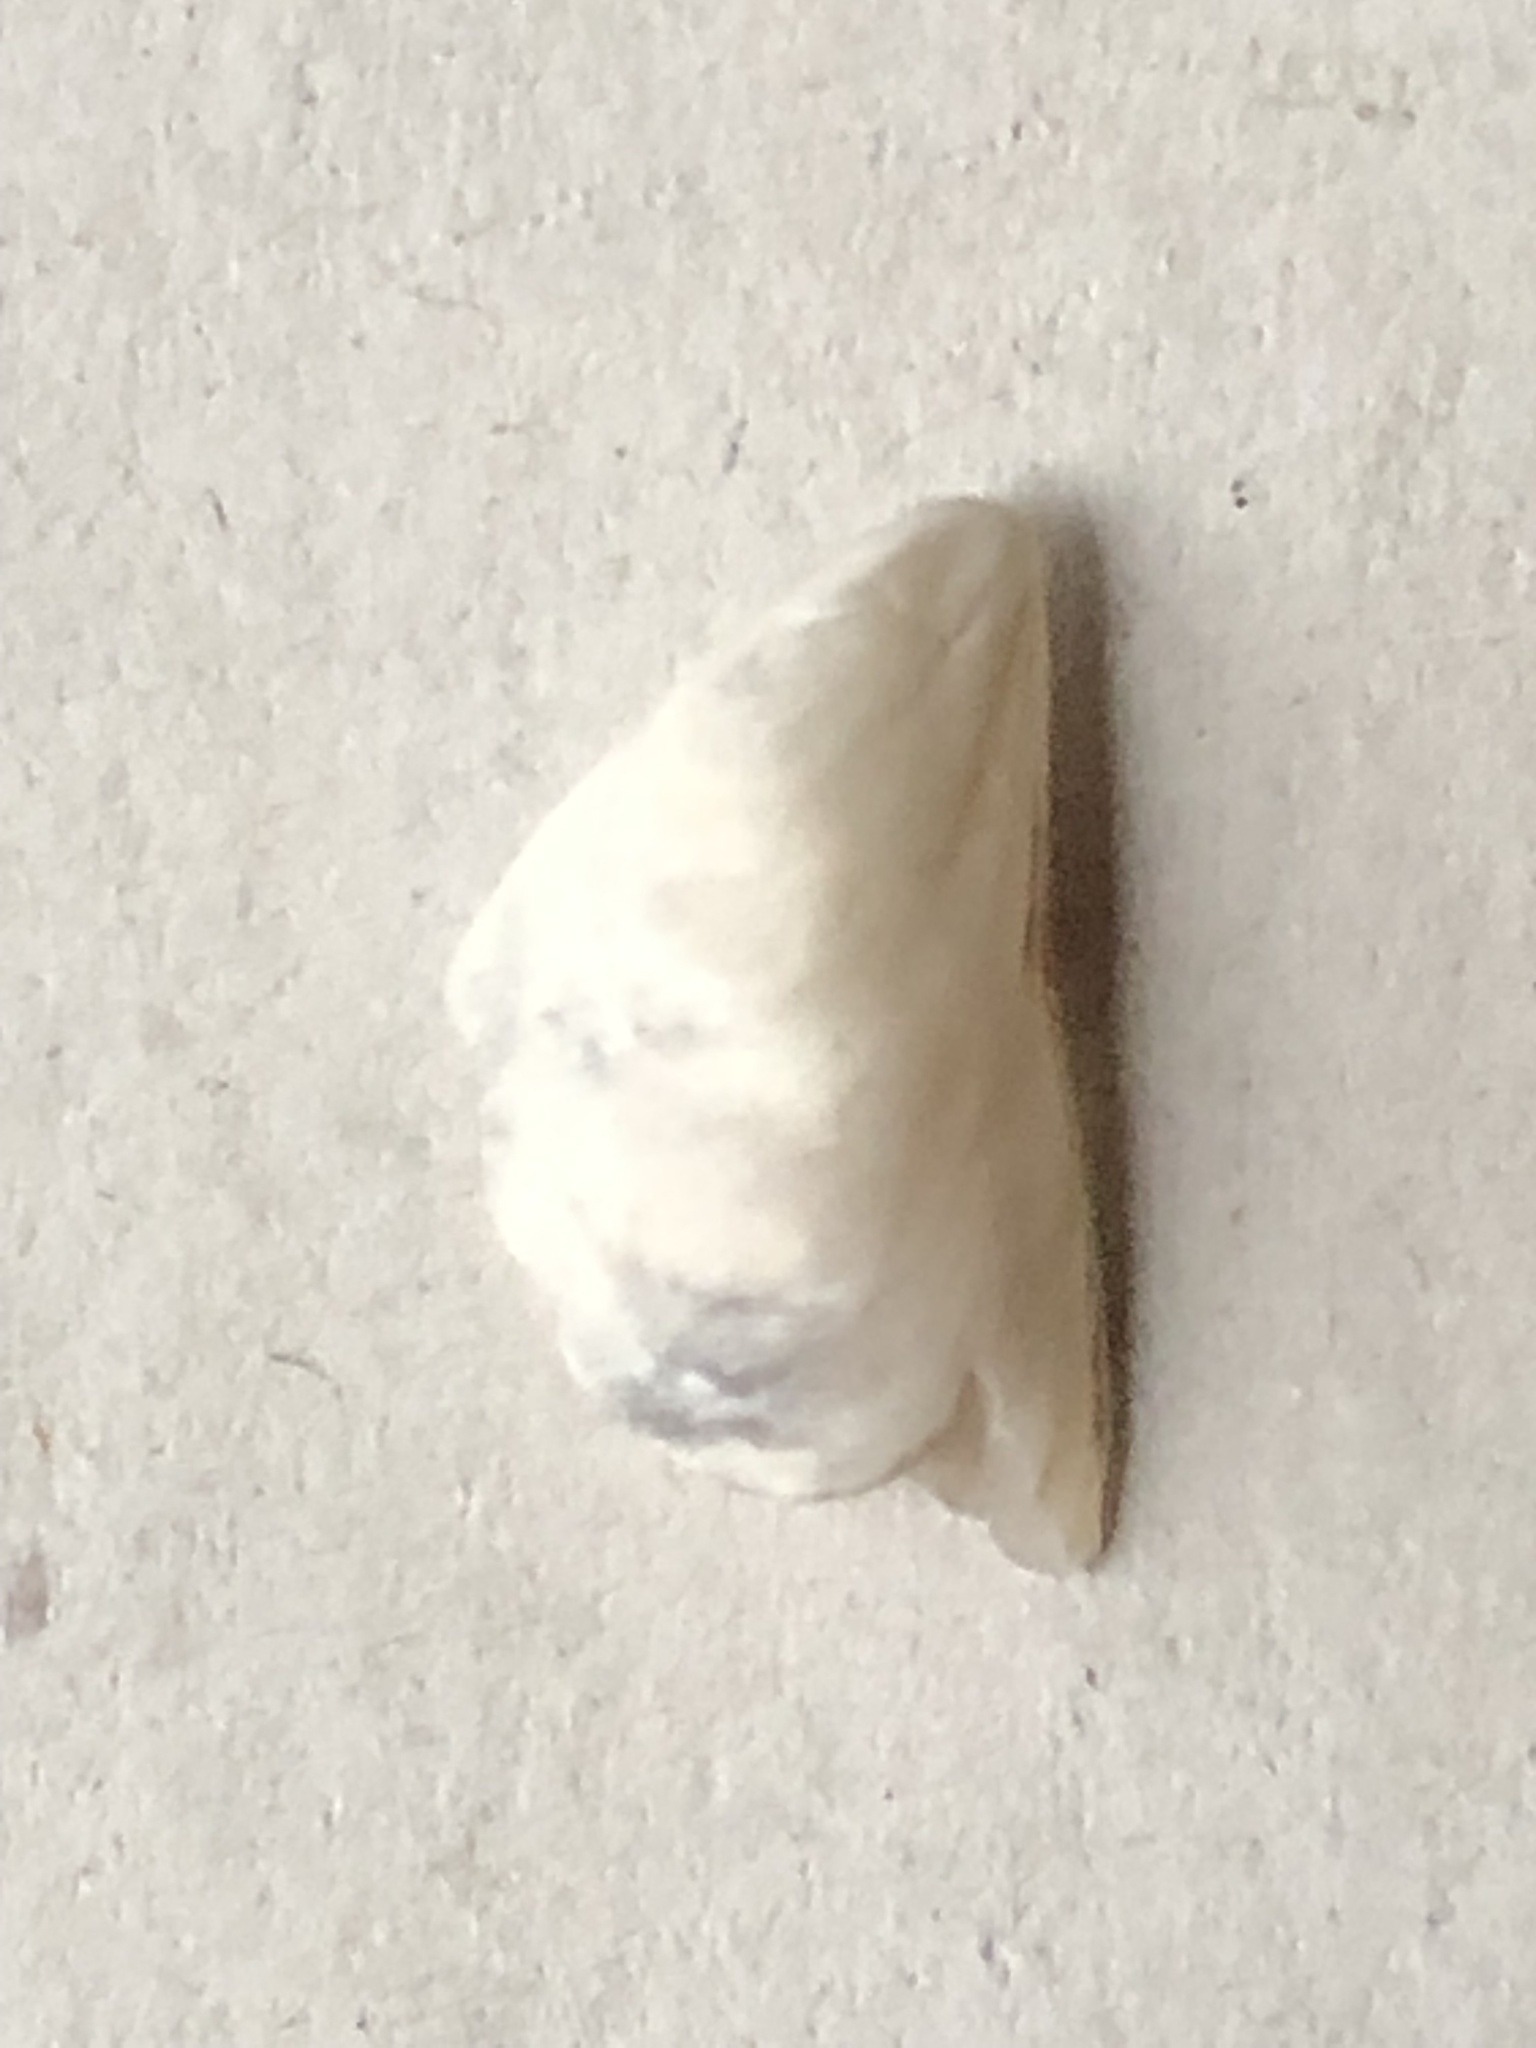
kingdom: Animalia
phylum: Mollusca
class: Bivalvia
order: Myida
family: Dreissenidae
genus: Dreissena
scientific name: Dreissena bugensis
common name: Quagga mussel
